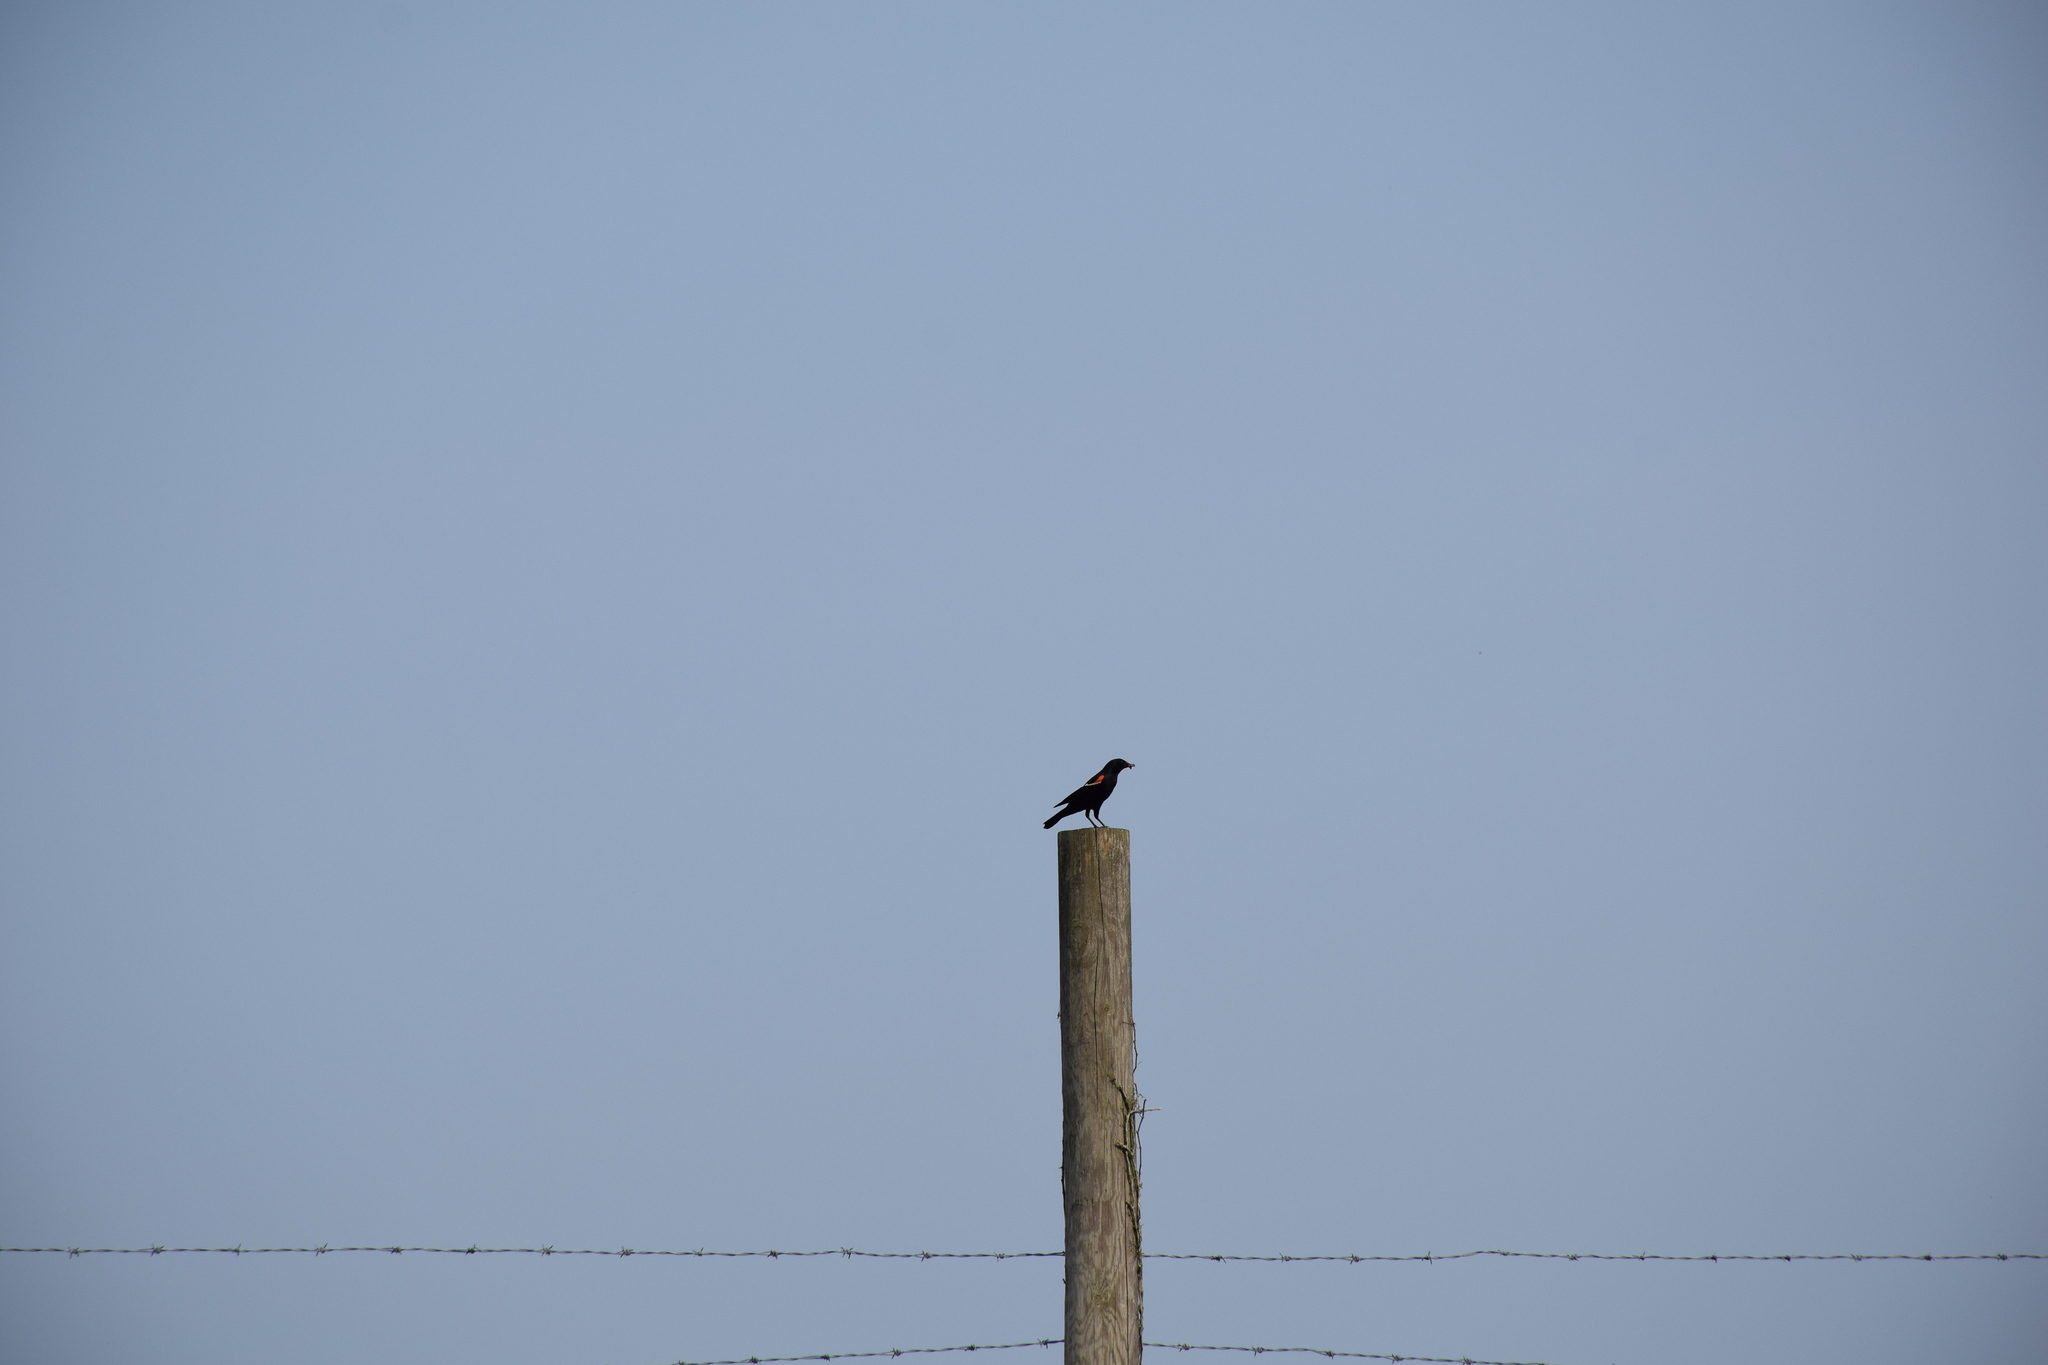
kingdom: Animalia
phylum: Chordata
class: Aves
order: Passeriformes
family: Icteridae
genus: Agelaius
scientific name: Agelaius phoeniceus
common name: Red-winged blackbird
